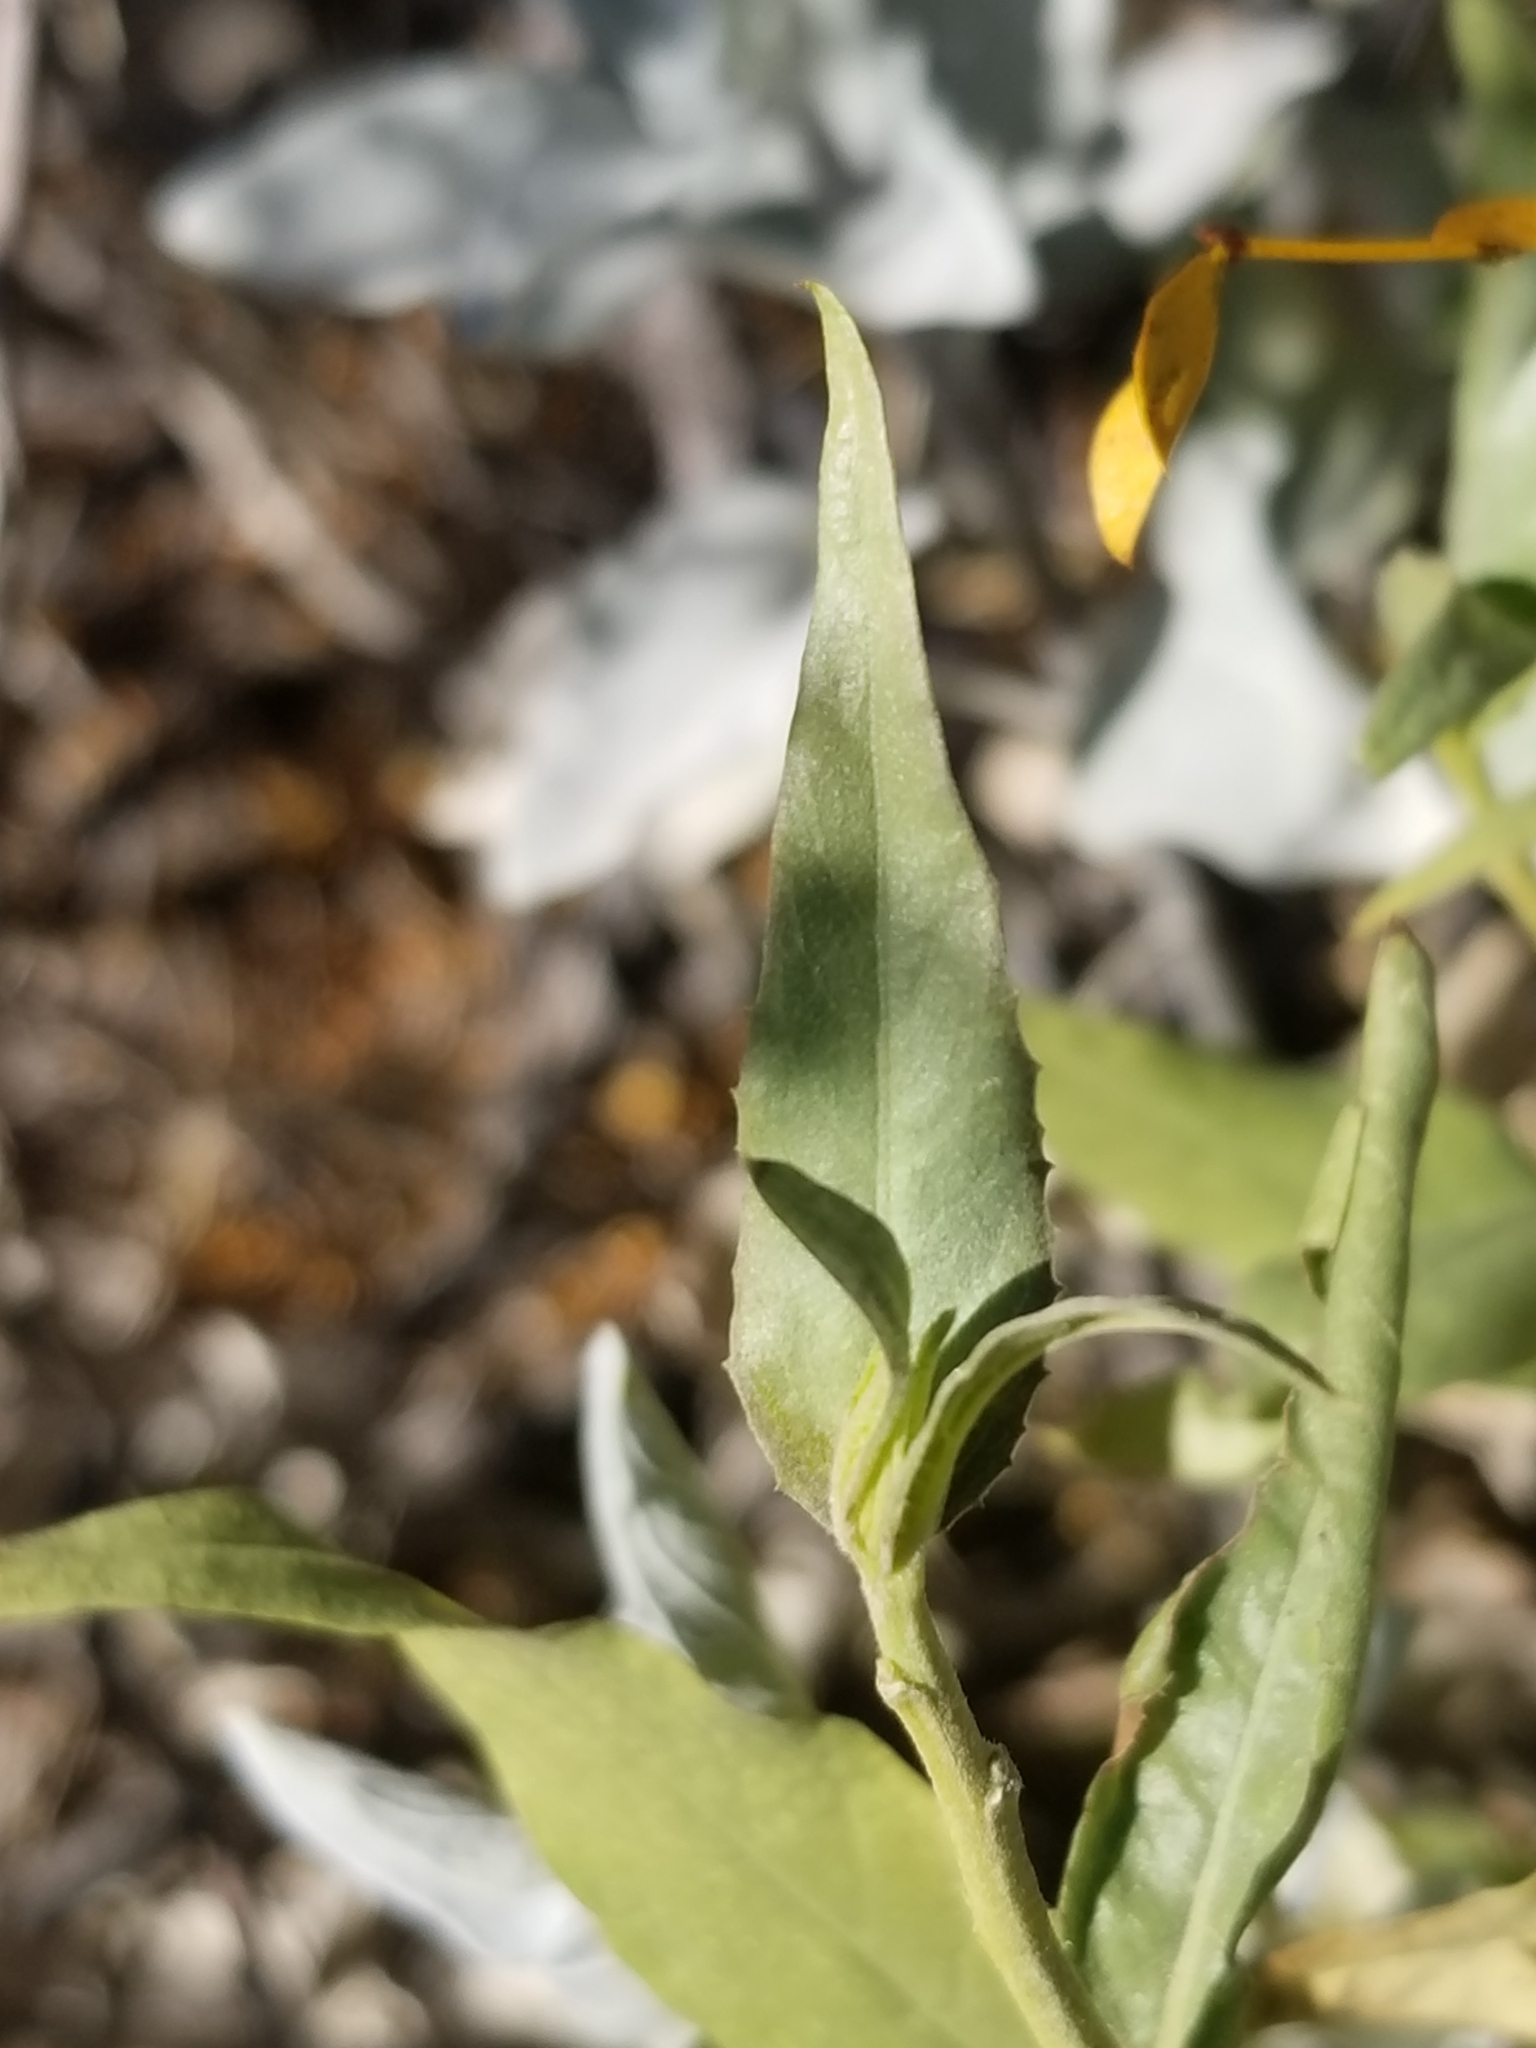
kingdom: Plantae
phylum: Tracheophyta
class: Magnoliopsida
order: Asterales
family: Asteraceae
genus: Trixis
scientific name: Trixis californica
